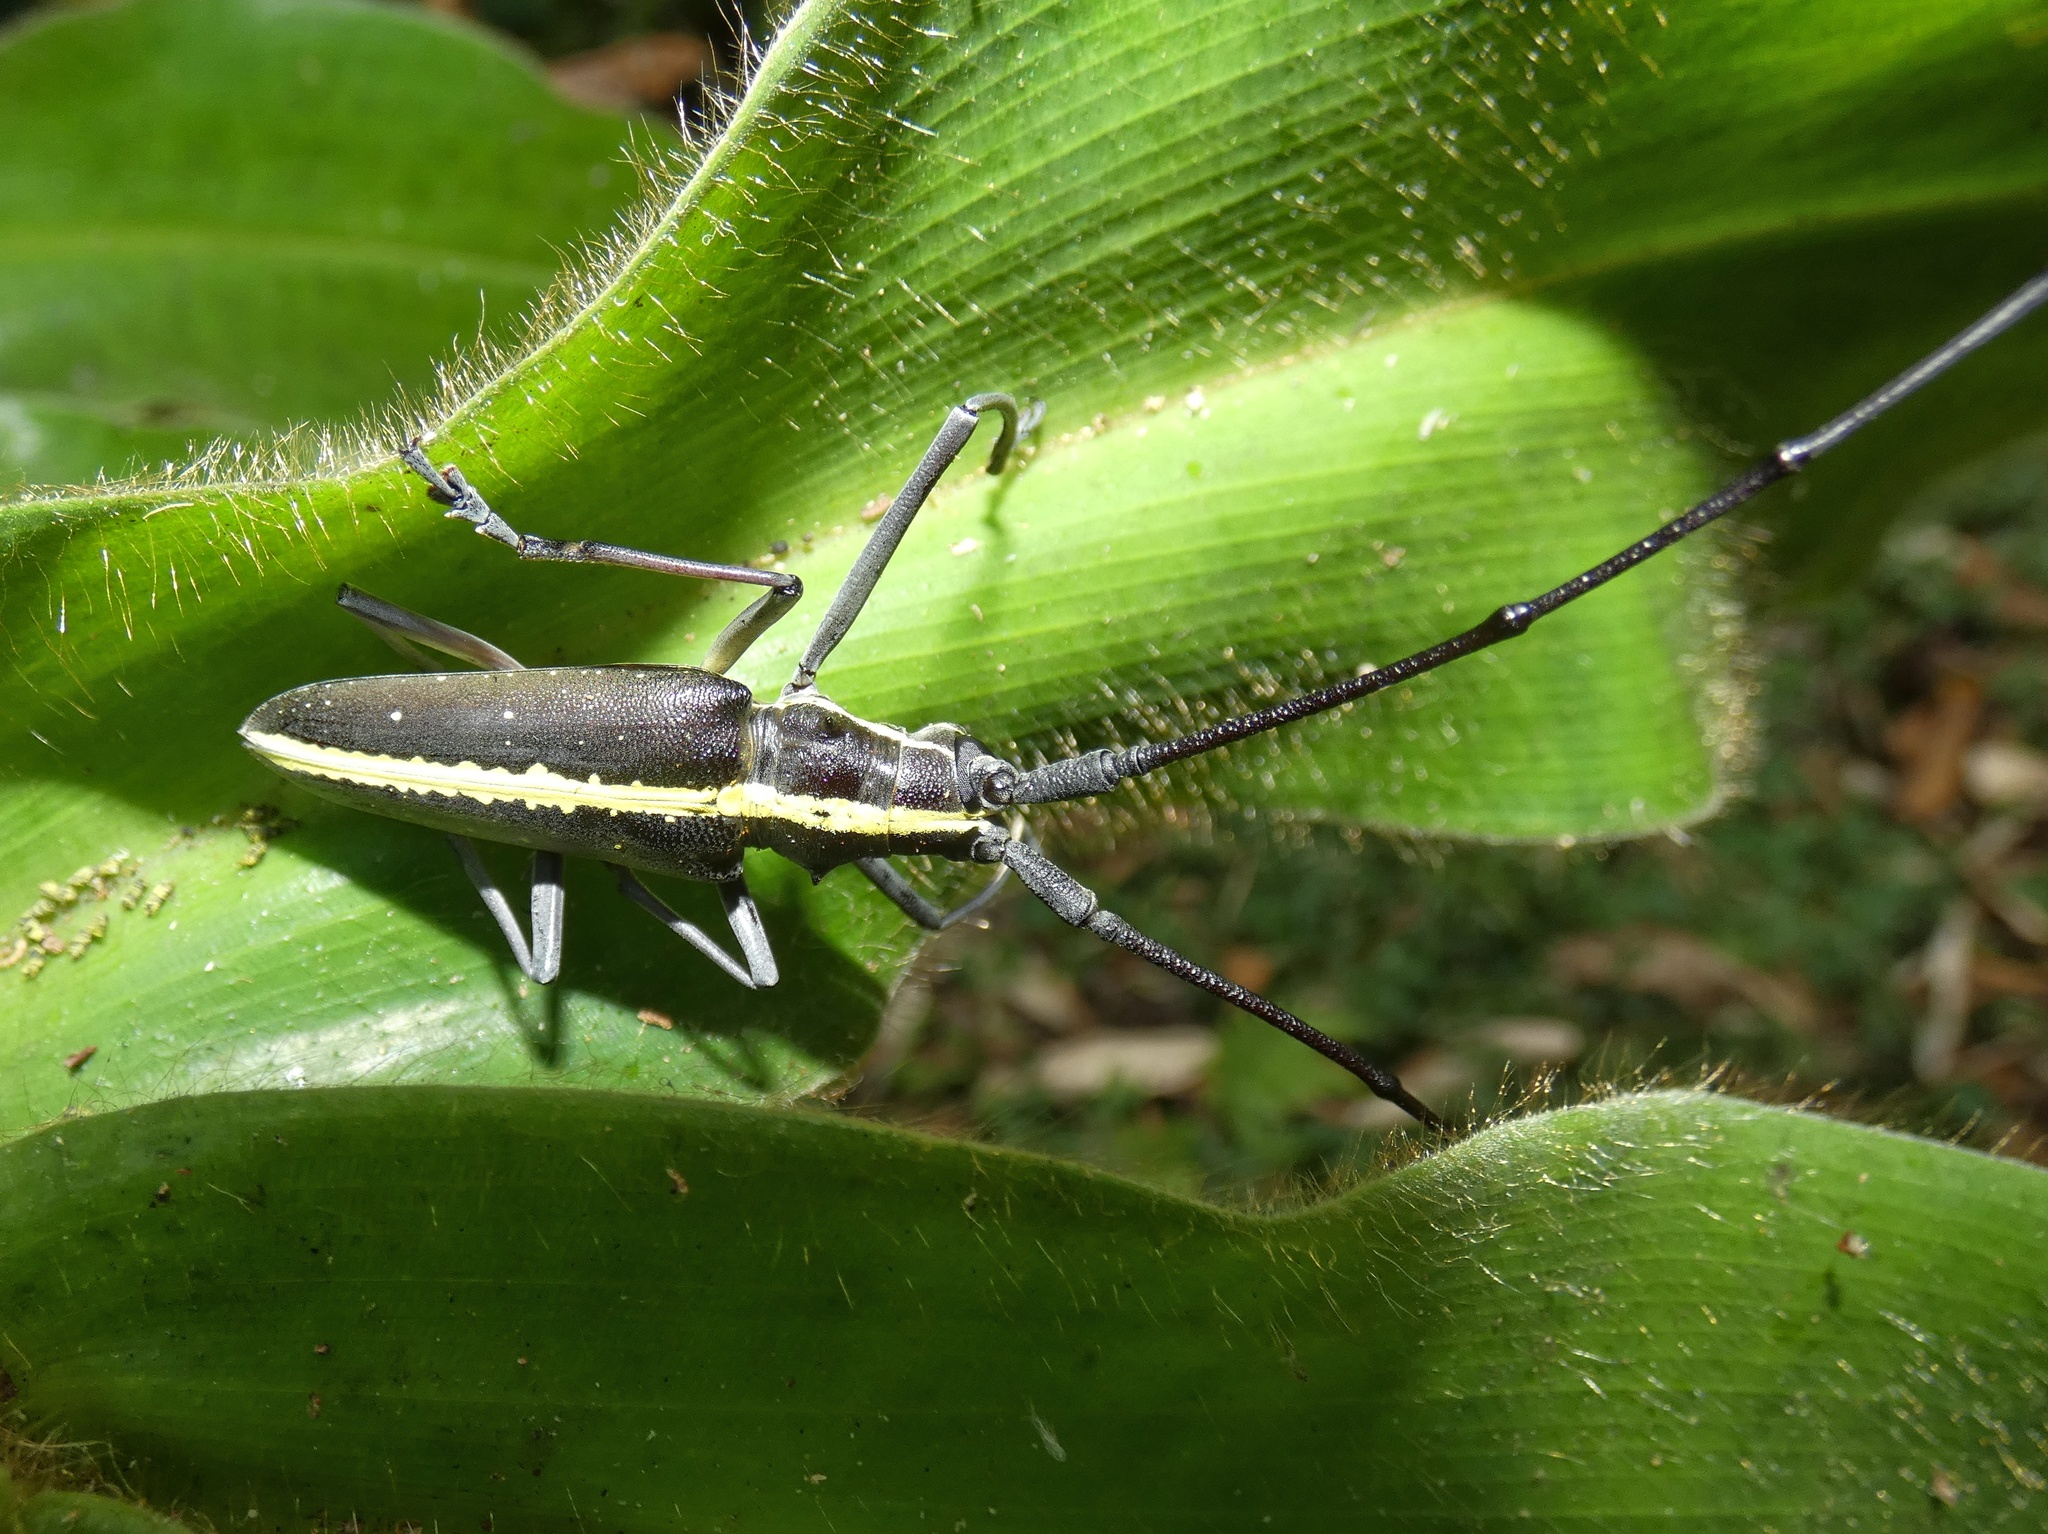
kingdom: Animalia
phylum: Arthropoda
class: Insecta
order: Coleoptera
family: Cerambycidae
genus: Taeniotes
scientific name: Taeniotes scalatus
